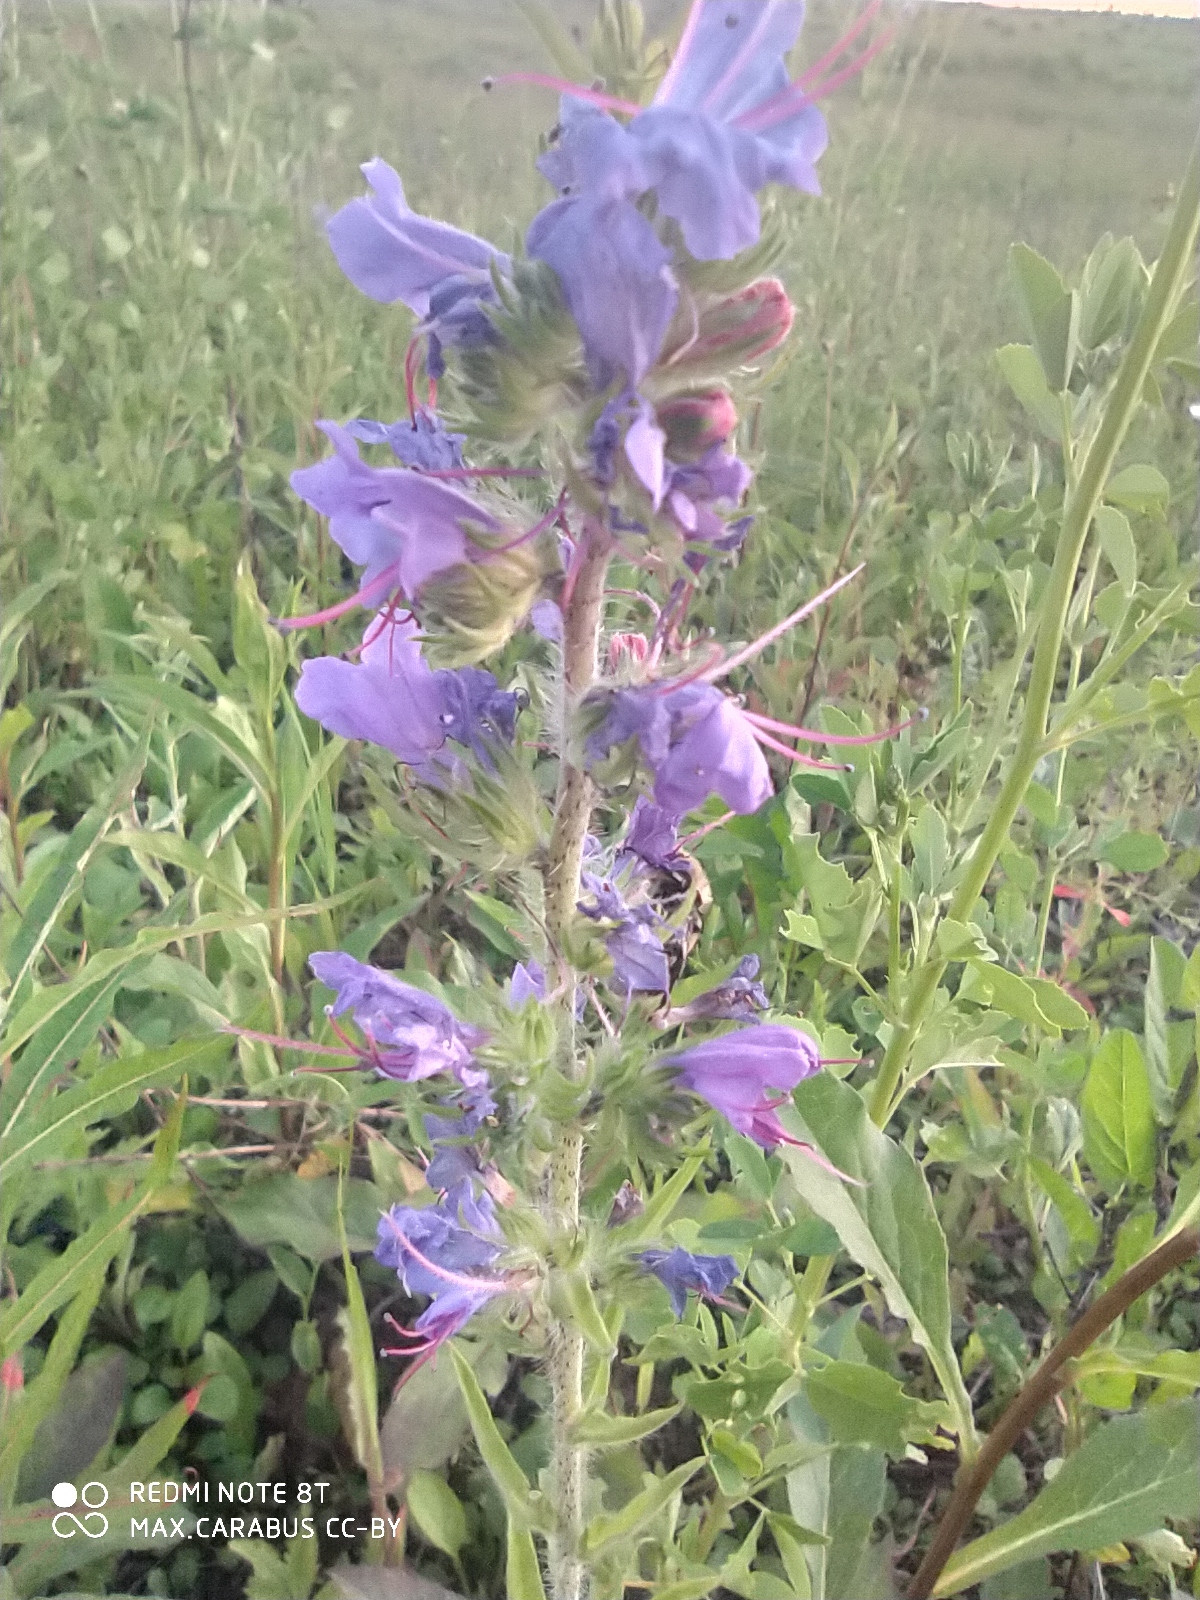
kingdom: Plantae
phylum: Tracheophyta
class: Magnoliopsida
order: Boraginales
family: Boraginaceae
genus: Echium
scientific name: Echium vulgare
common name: Common viper's bugloss
